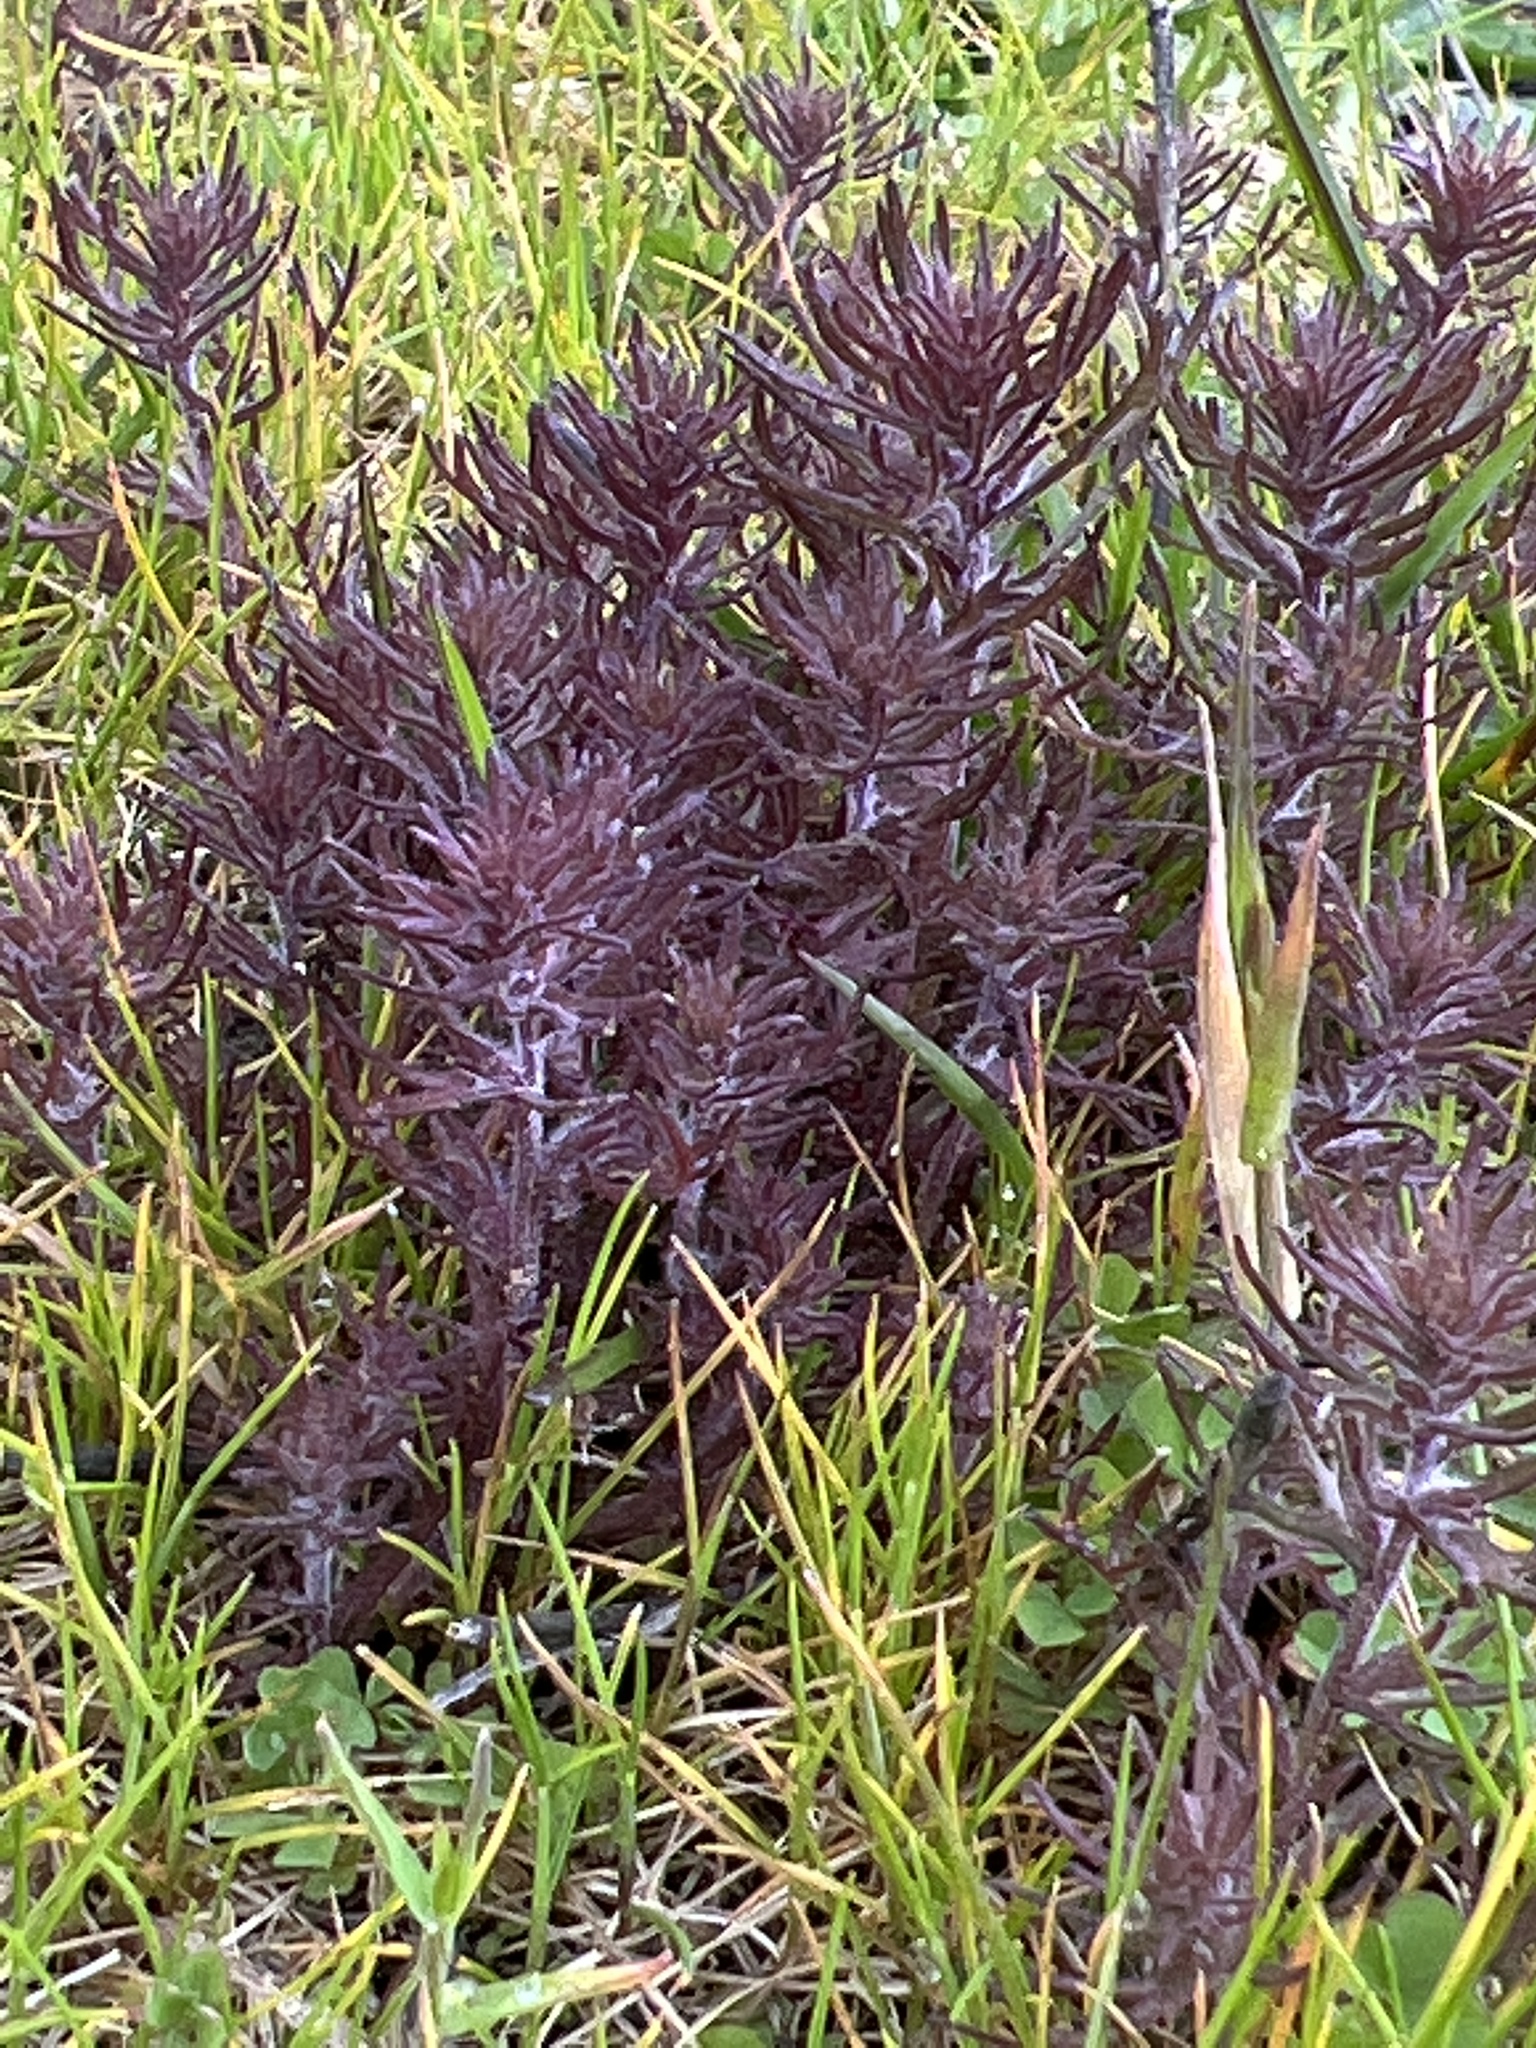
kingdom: Plantae
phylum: Tracheophyta
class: Magnoliopsida
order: Lamiales
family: Orobanchaceae
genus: Triphysaria
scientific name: Triphysaria pusilla
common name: Dwarf false owl-clover
